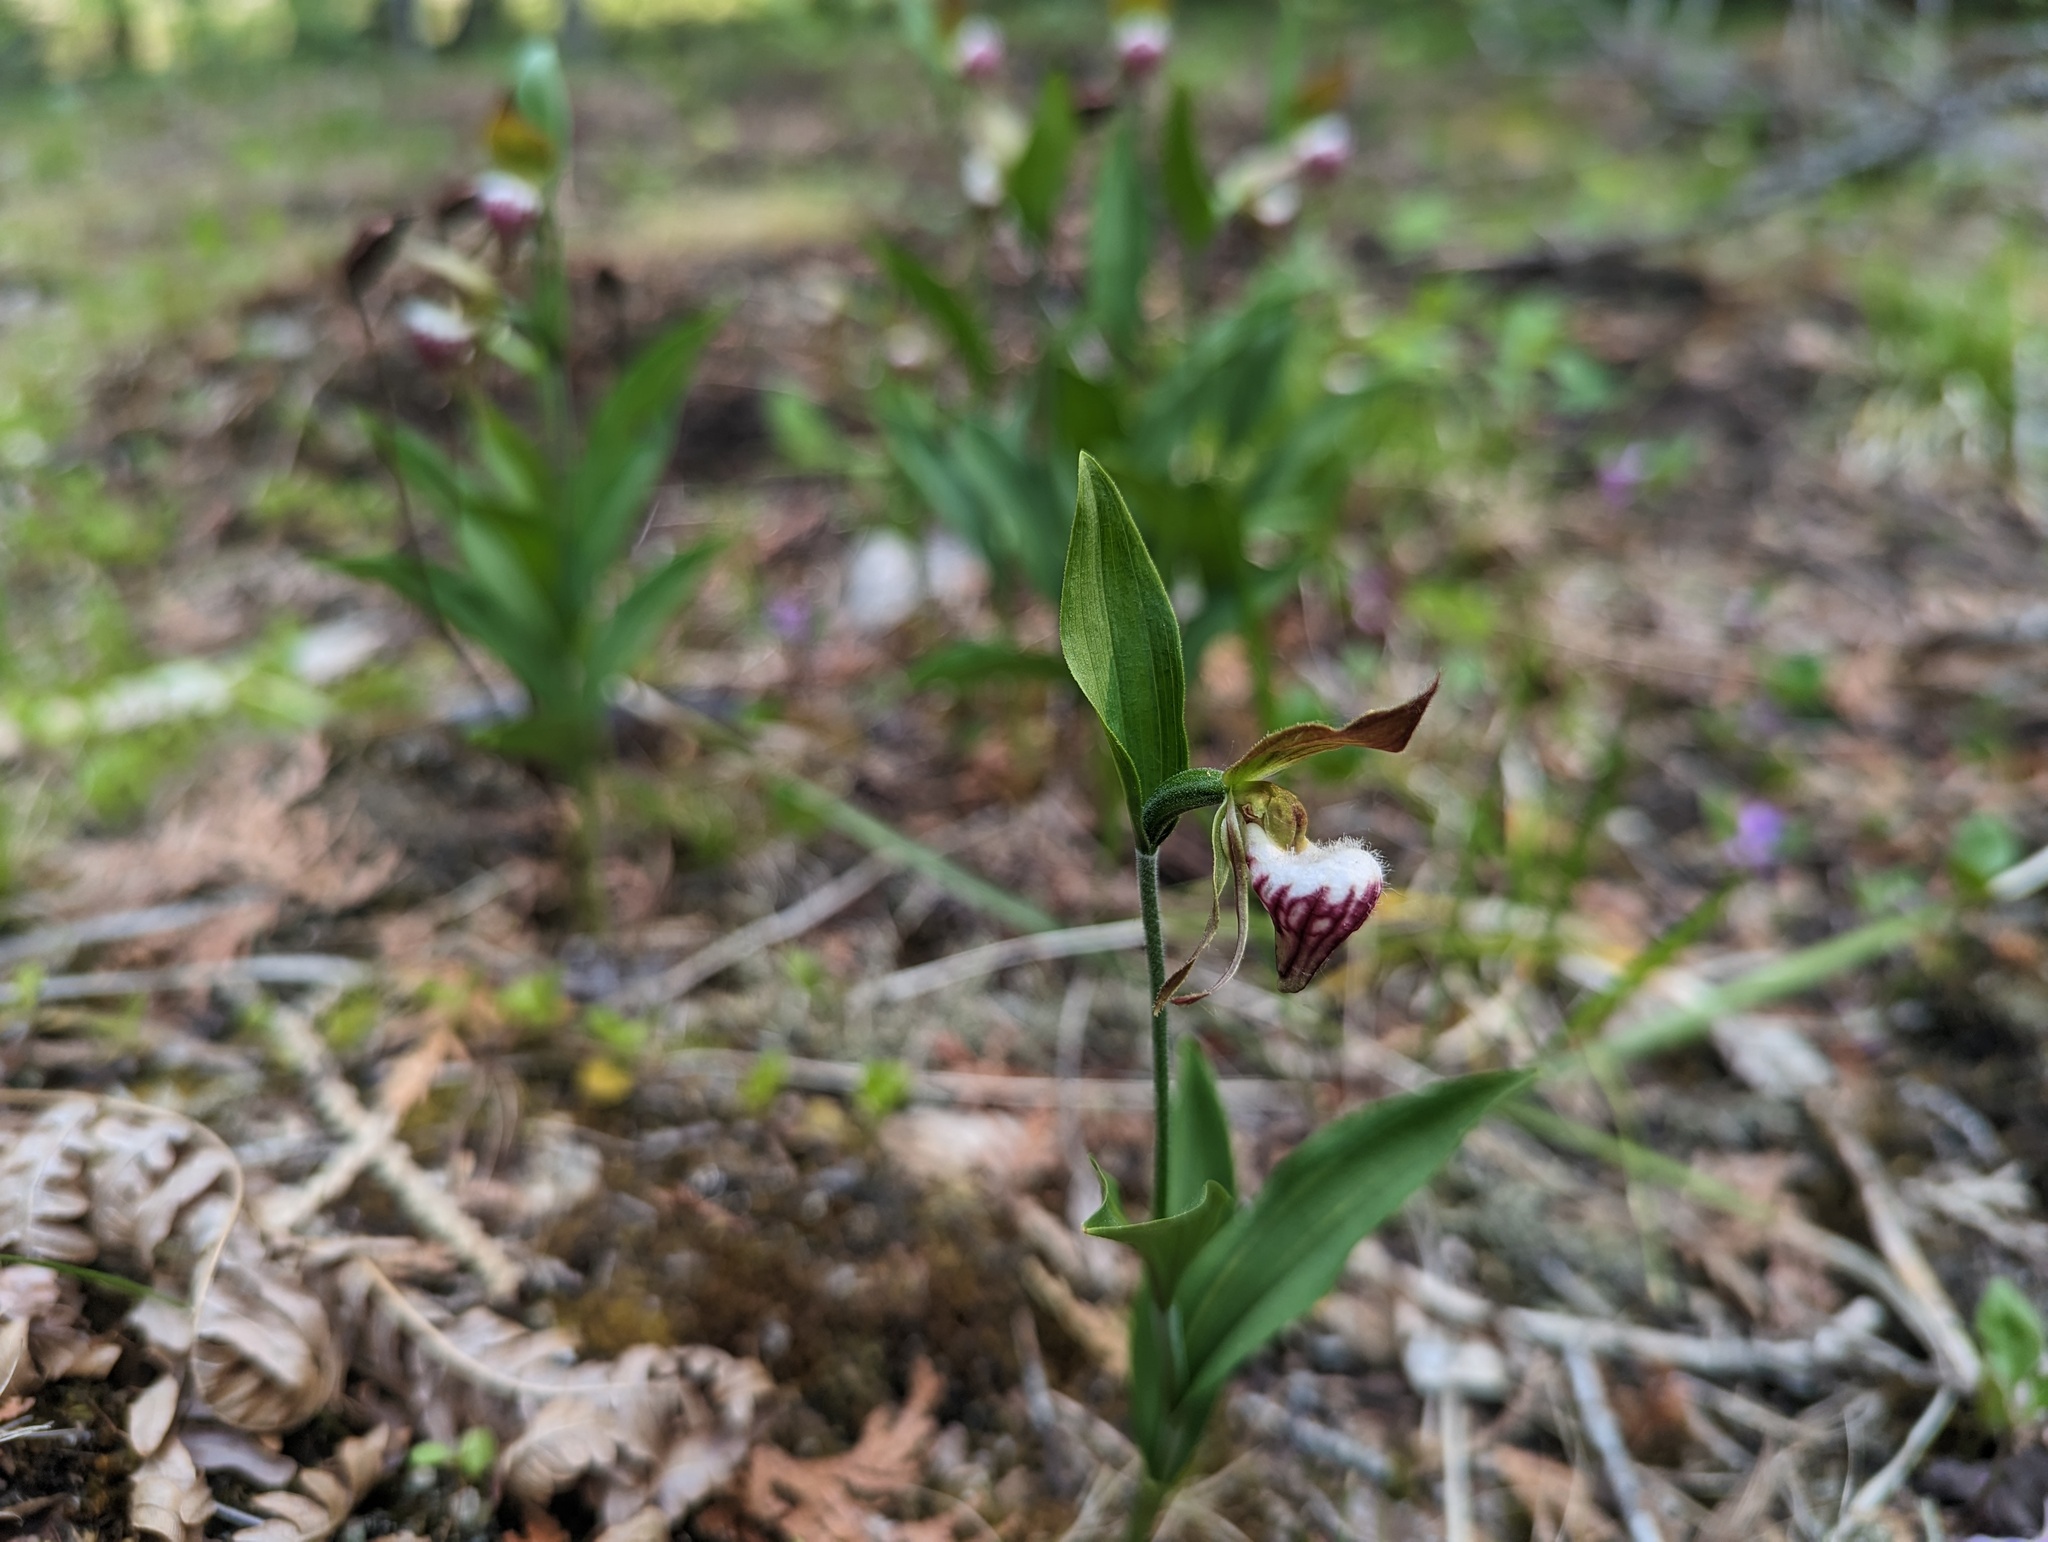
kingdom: Plantae
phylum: Tracheophyta
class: Liliopsida
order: Asparagales
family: Orchidaceae
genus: Cypripedium
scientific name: Cypripedium arietinum
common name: Ram's-head
